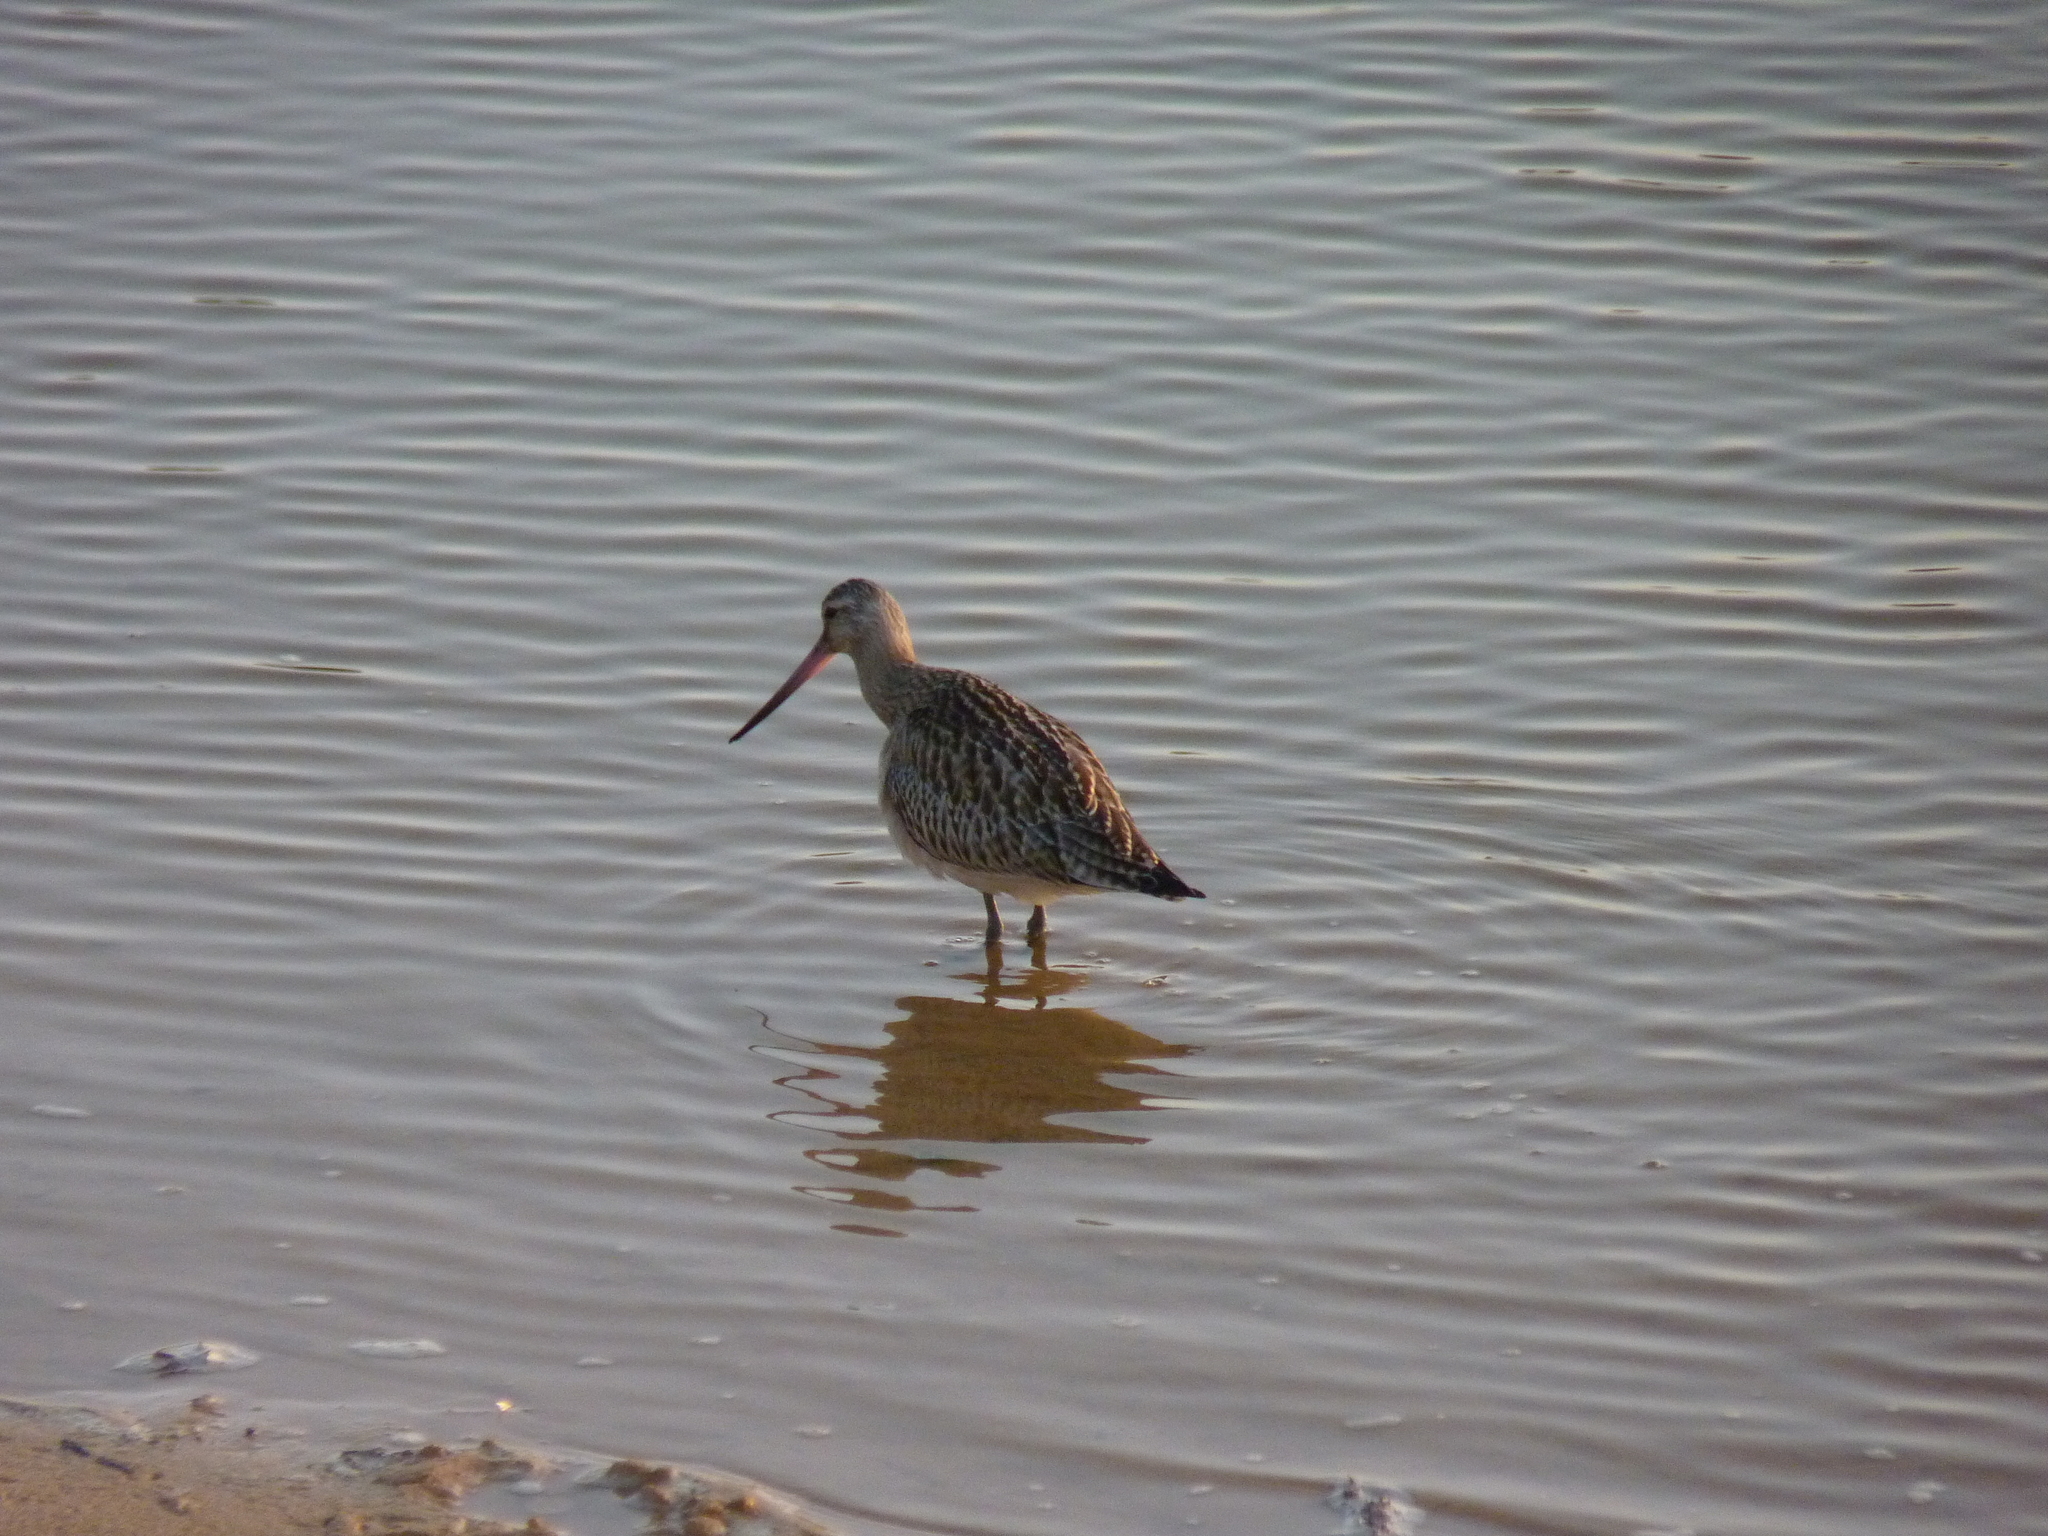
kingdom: Animalia
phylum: Chordata
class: Aves
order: Charadriiformes
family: Scolopacidae
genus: Limosa
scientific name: Limosa lapponica
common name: Bar-tailed godwit
